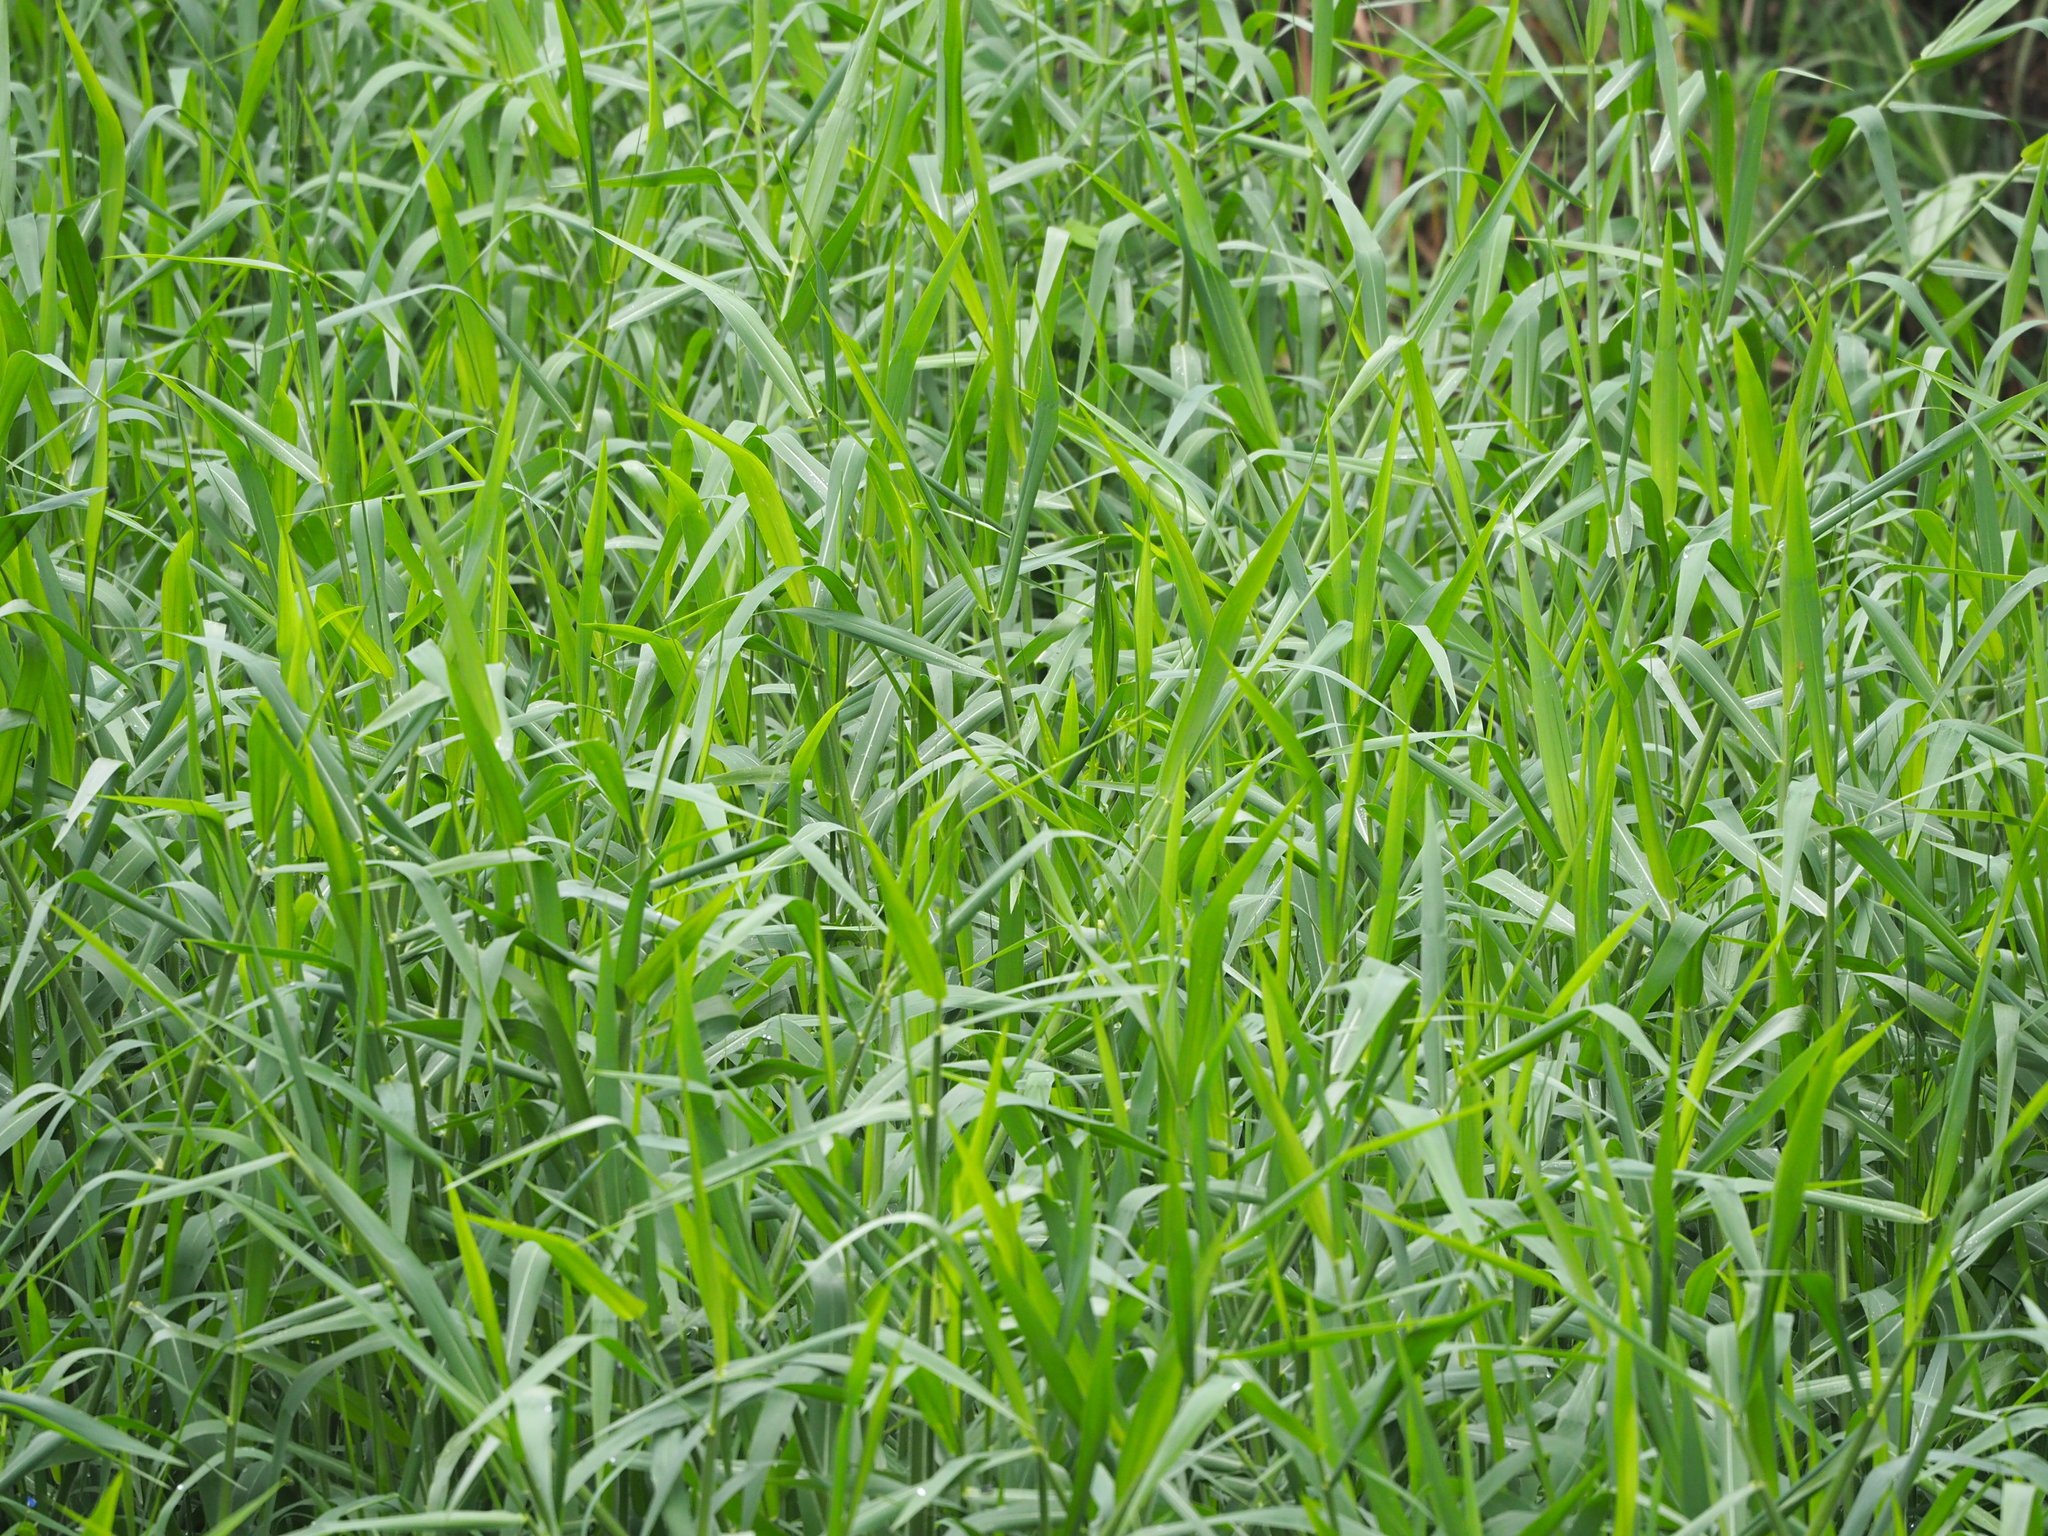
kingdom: Plantae
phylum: Tracheophyta
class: Liliopsida
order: Poales
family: Poaceae
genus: Urochloa
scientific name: Urochloa mutica
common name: Para grass
